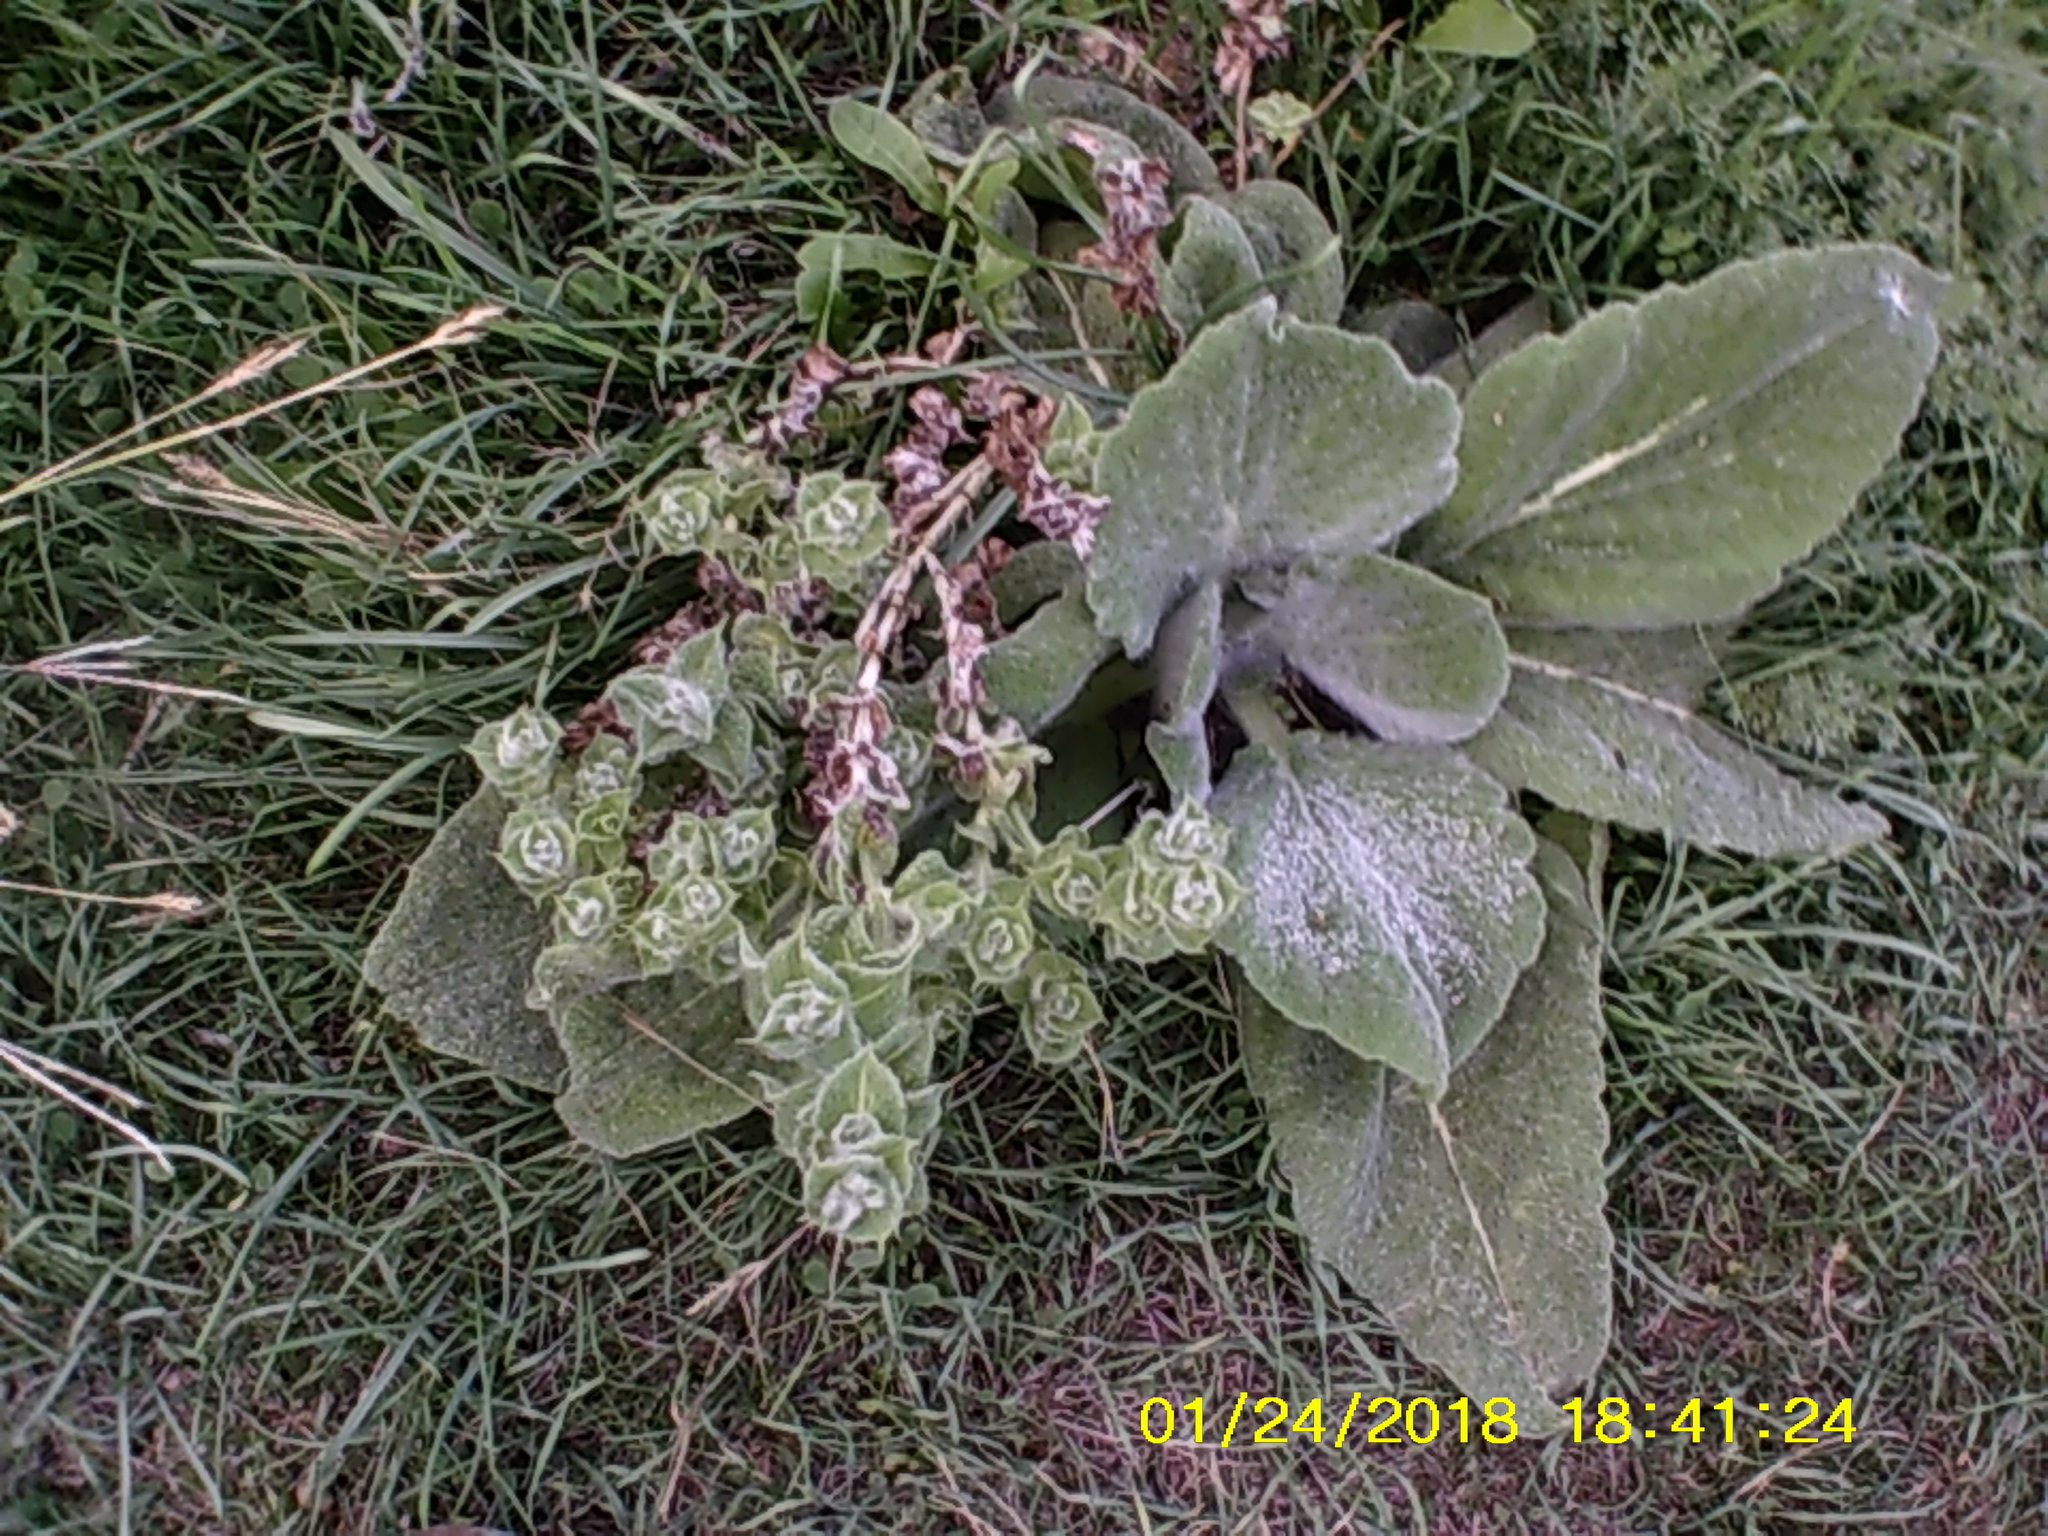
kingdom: Plantae
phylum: Tracheophyta
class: Magnoliopsida
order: Lamiales
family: Lamiaceae
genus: Salvia
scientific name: Salvia aethiopis
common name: Mediterranean sage
